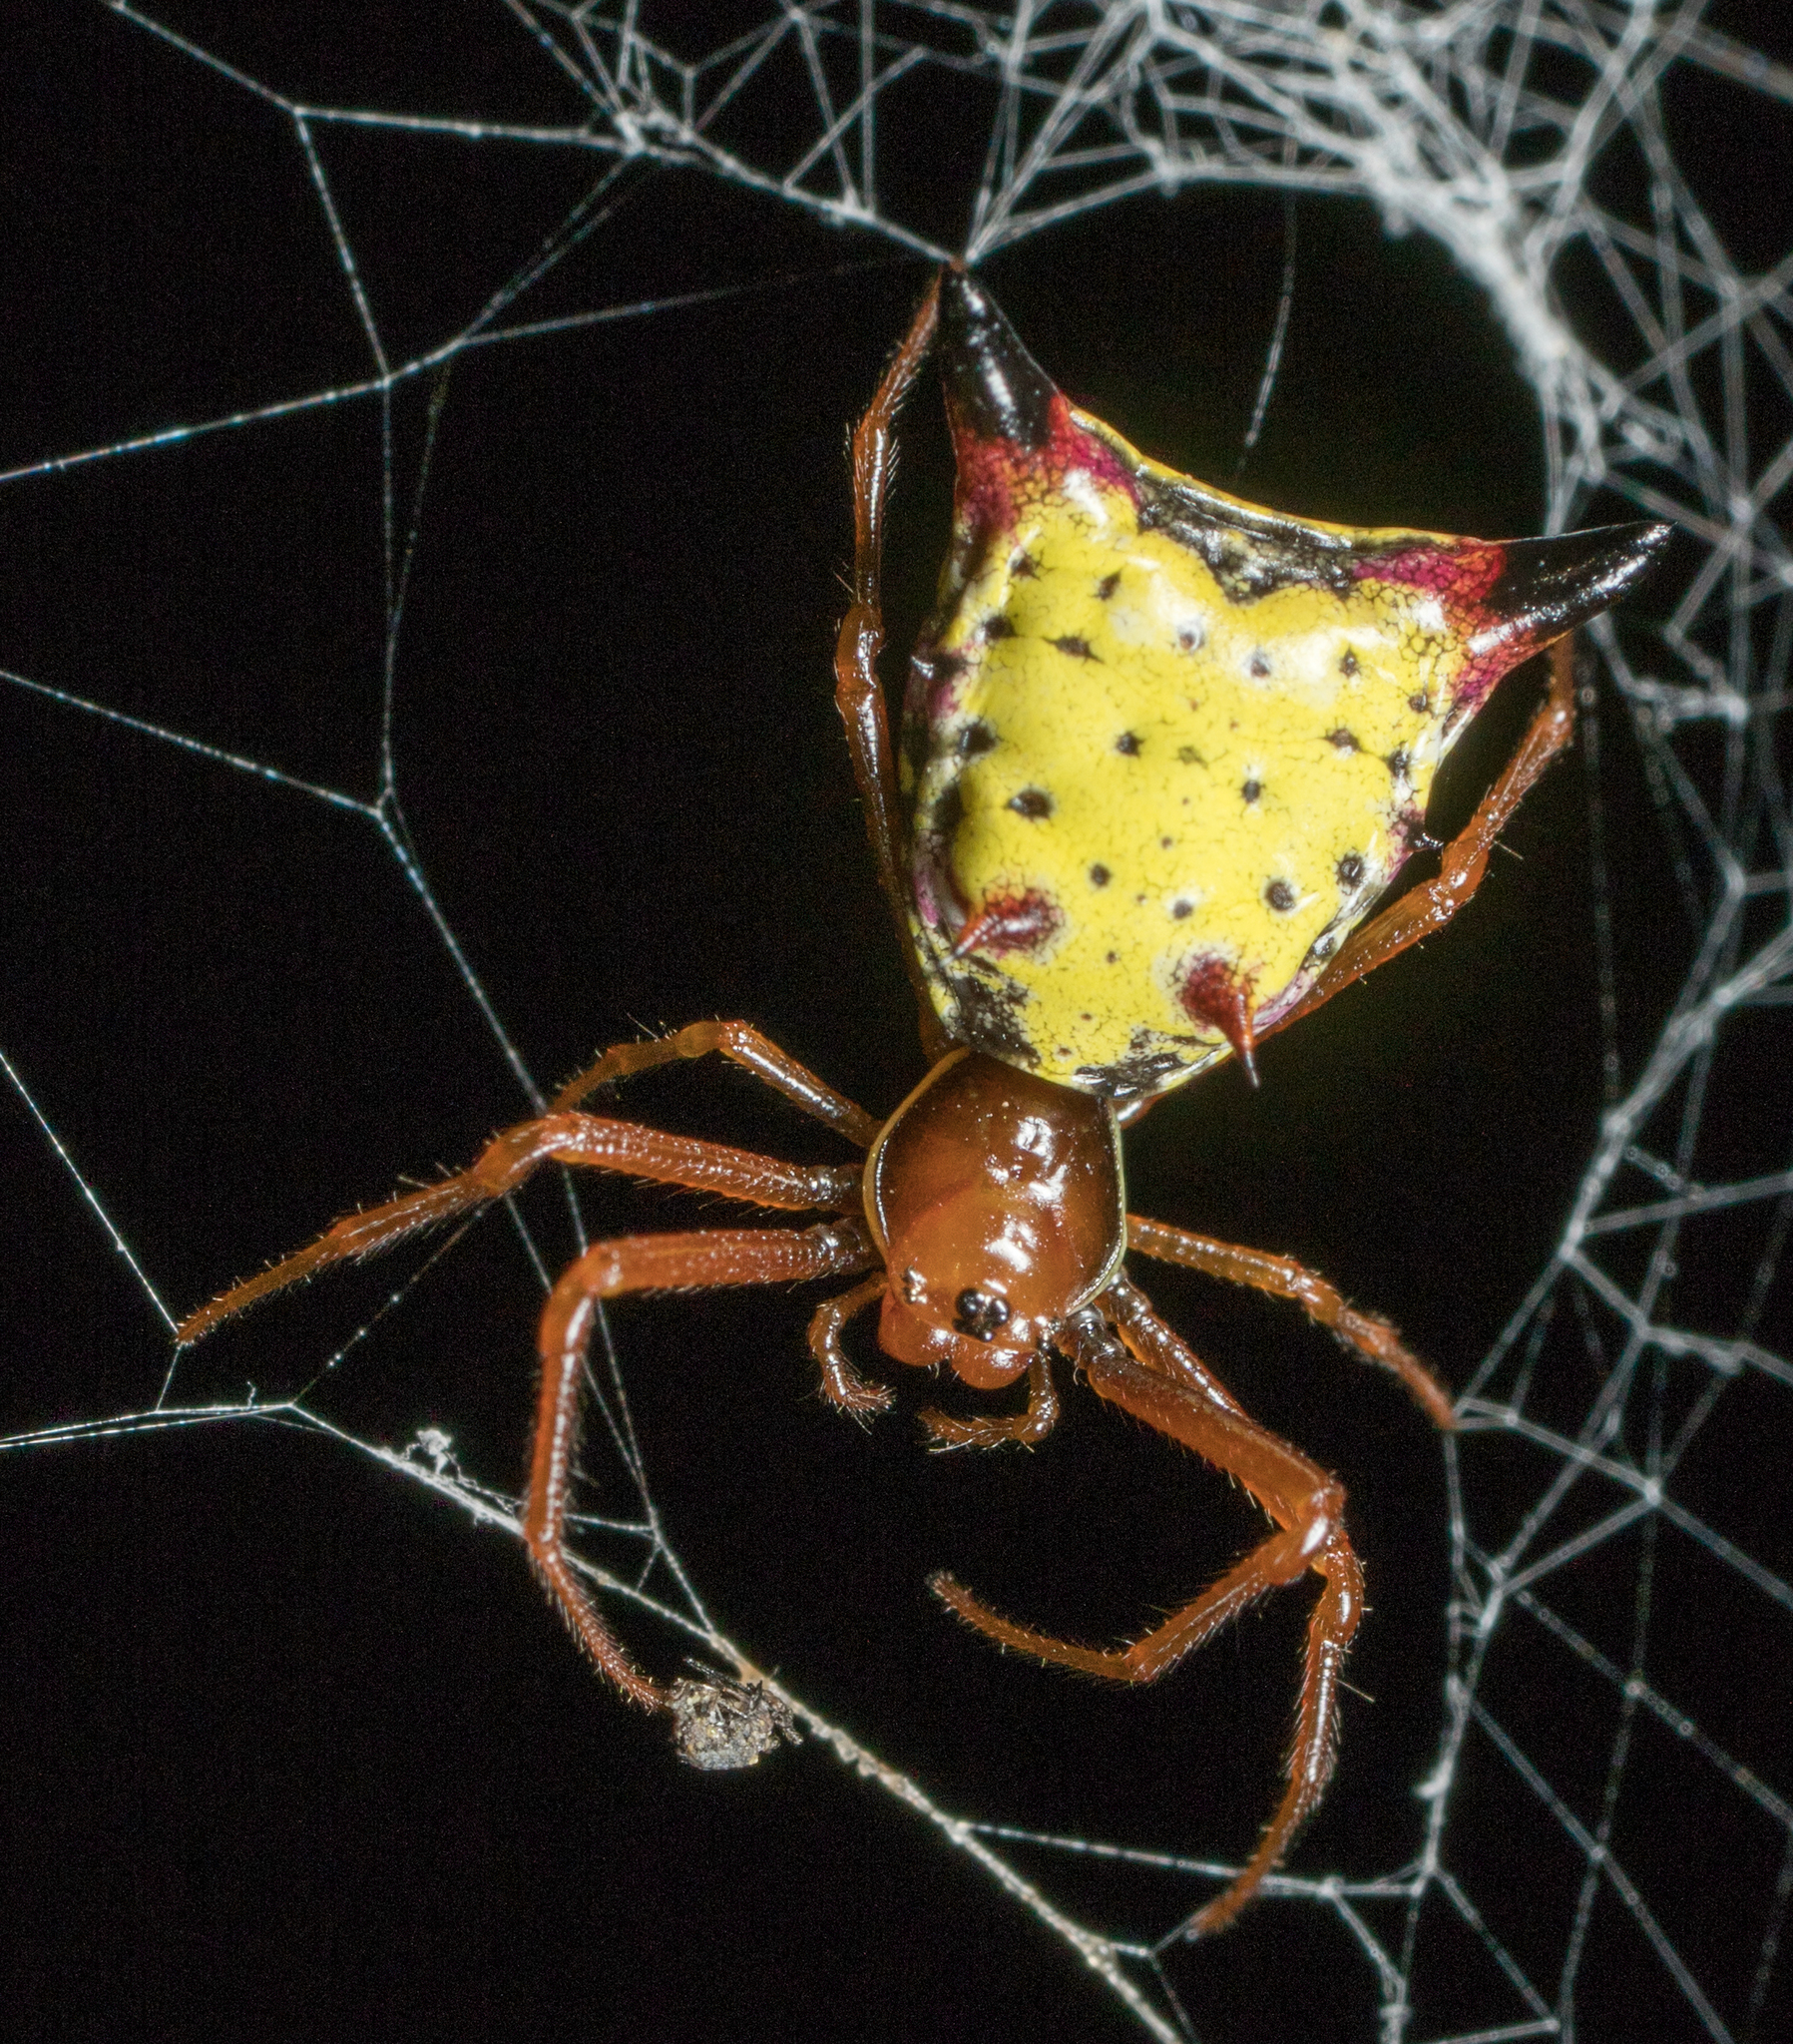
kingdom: Animalia
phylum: Arthropoda
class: Arachnida
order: Araneae
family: Araneidae
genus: Micrathena
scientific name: Micrathena sagittata
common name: Orb weavers
